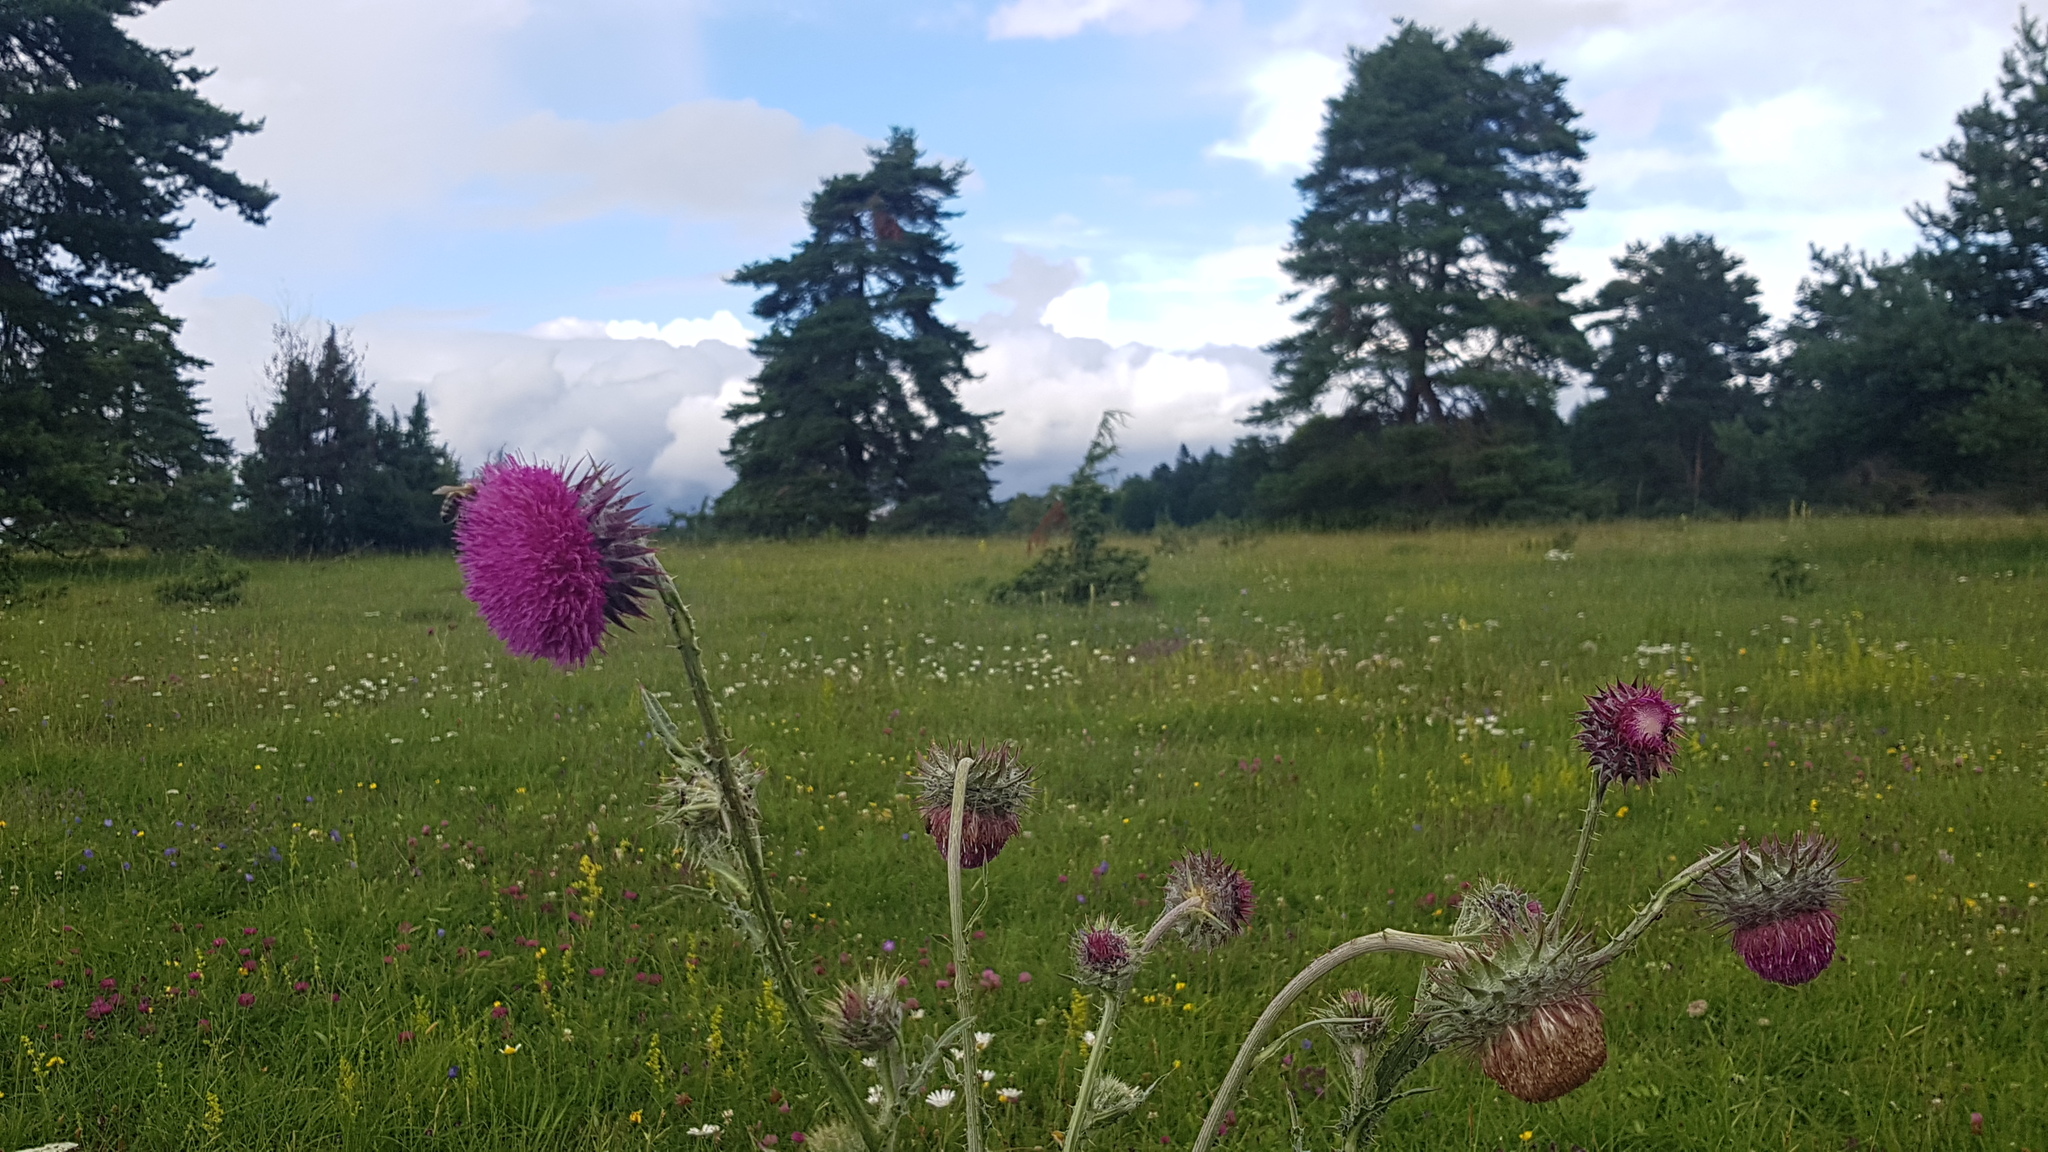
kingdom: Plantae
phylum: Tracheophyta
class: Magnoliopsida
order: Asterales
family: Asteraceae
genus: Carduus
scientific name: Carduus nutans
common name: Musk thistle
